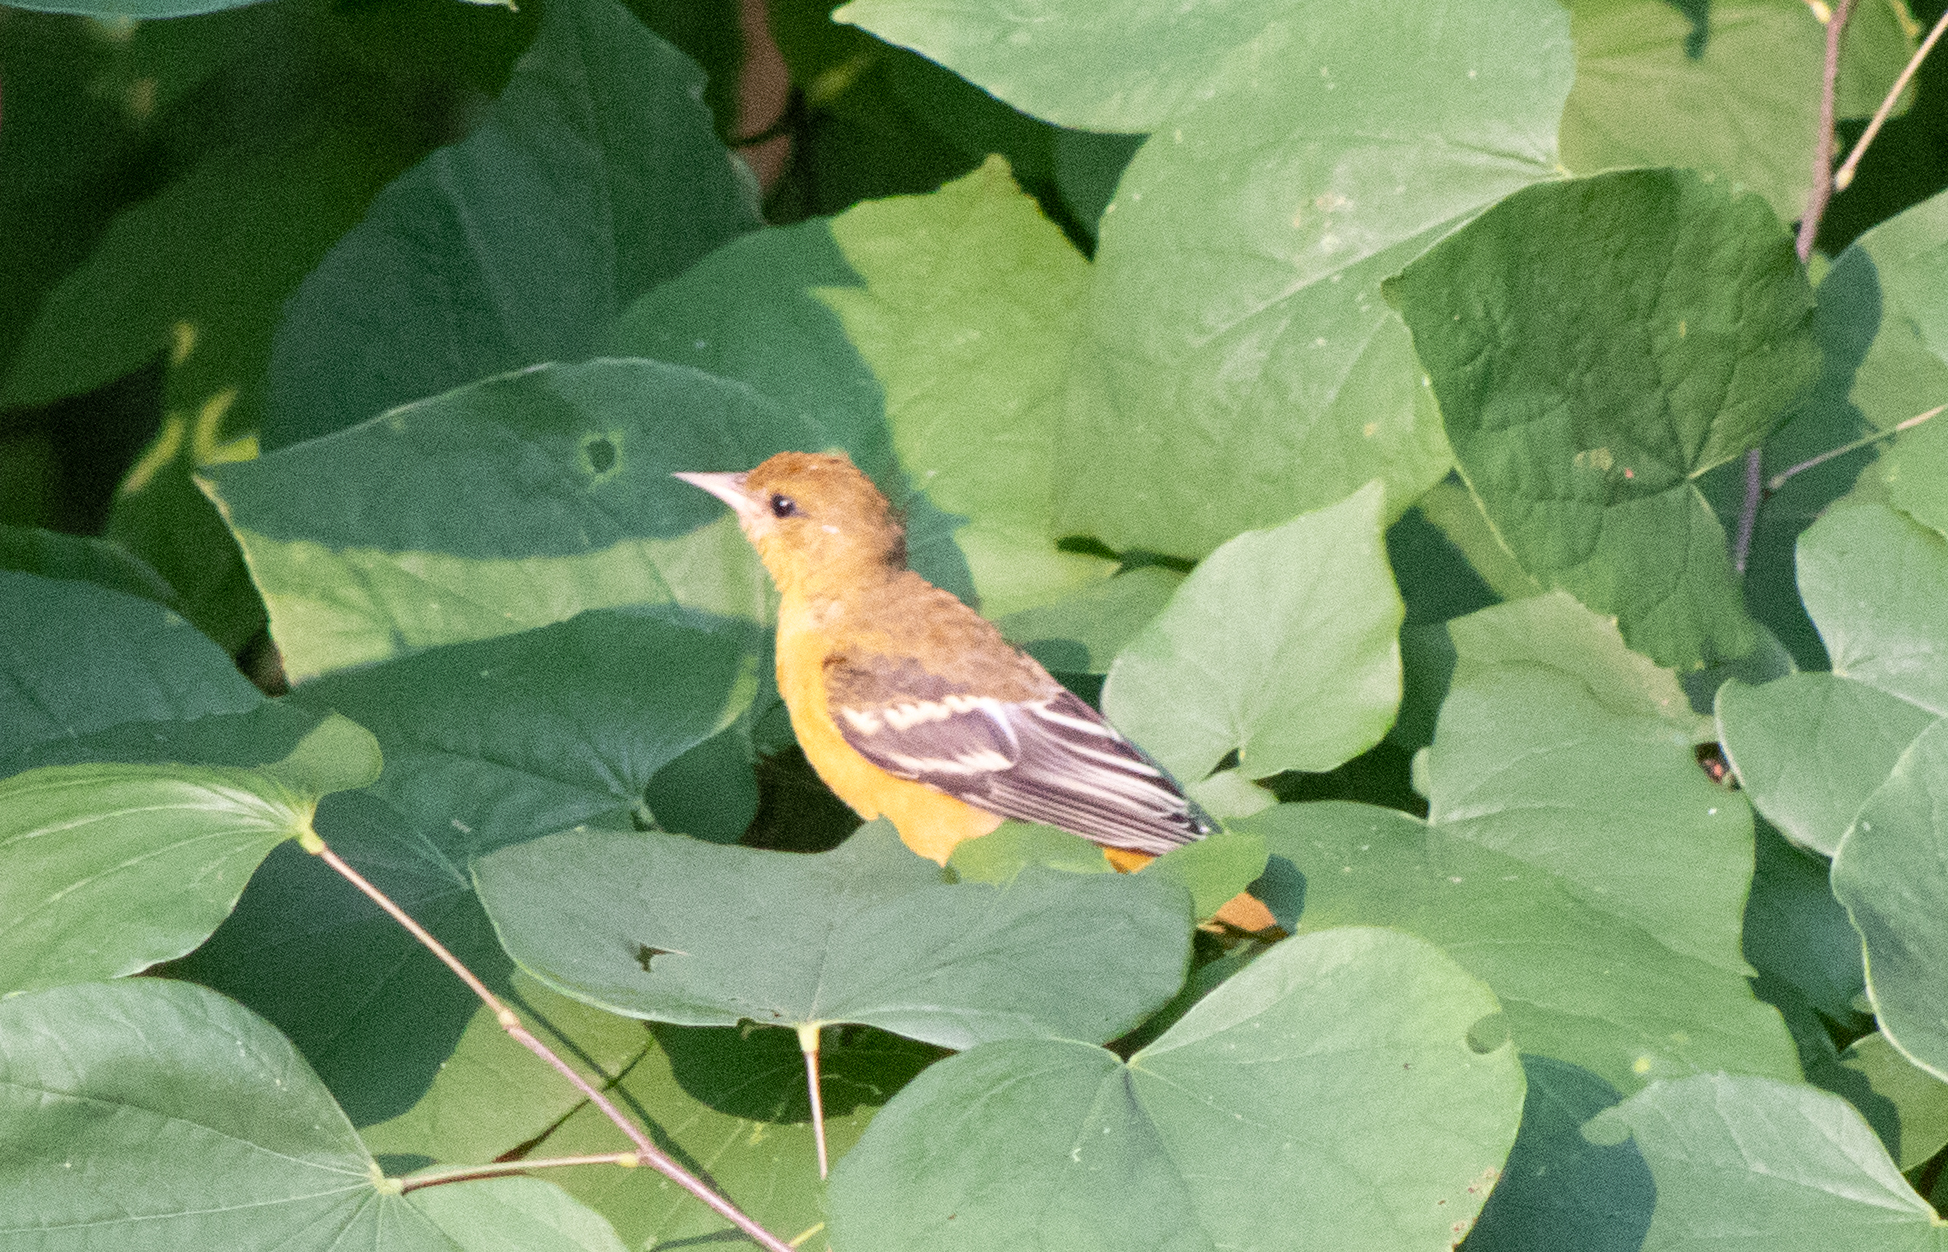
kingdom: Animalia
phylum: Chordata
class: Aves
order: Passeriformes
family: Icteridae
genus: Icterus
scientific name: Icterus galbula
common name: Baltimore oriole
